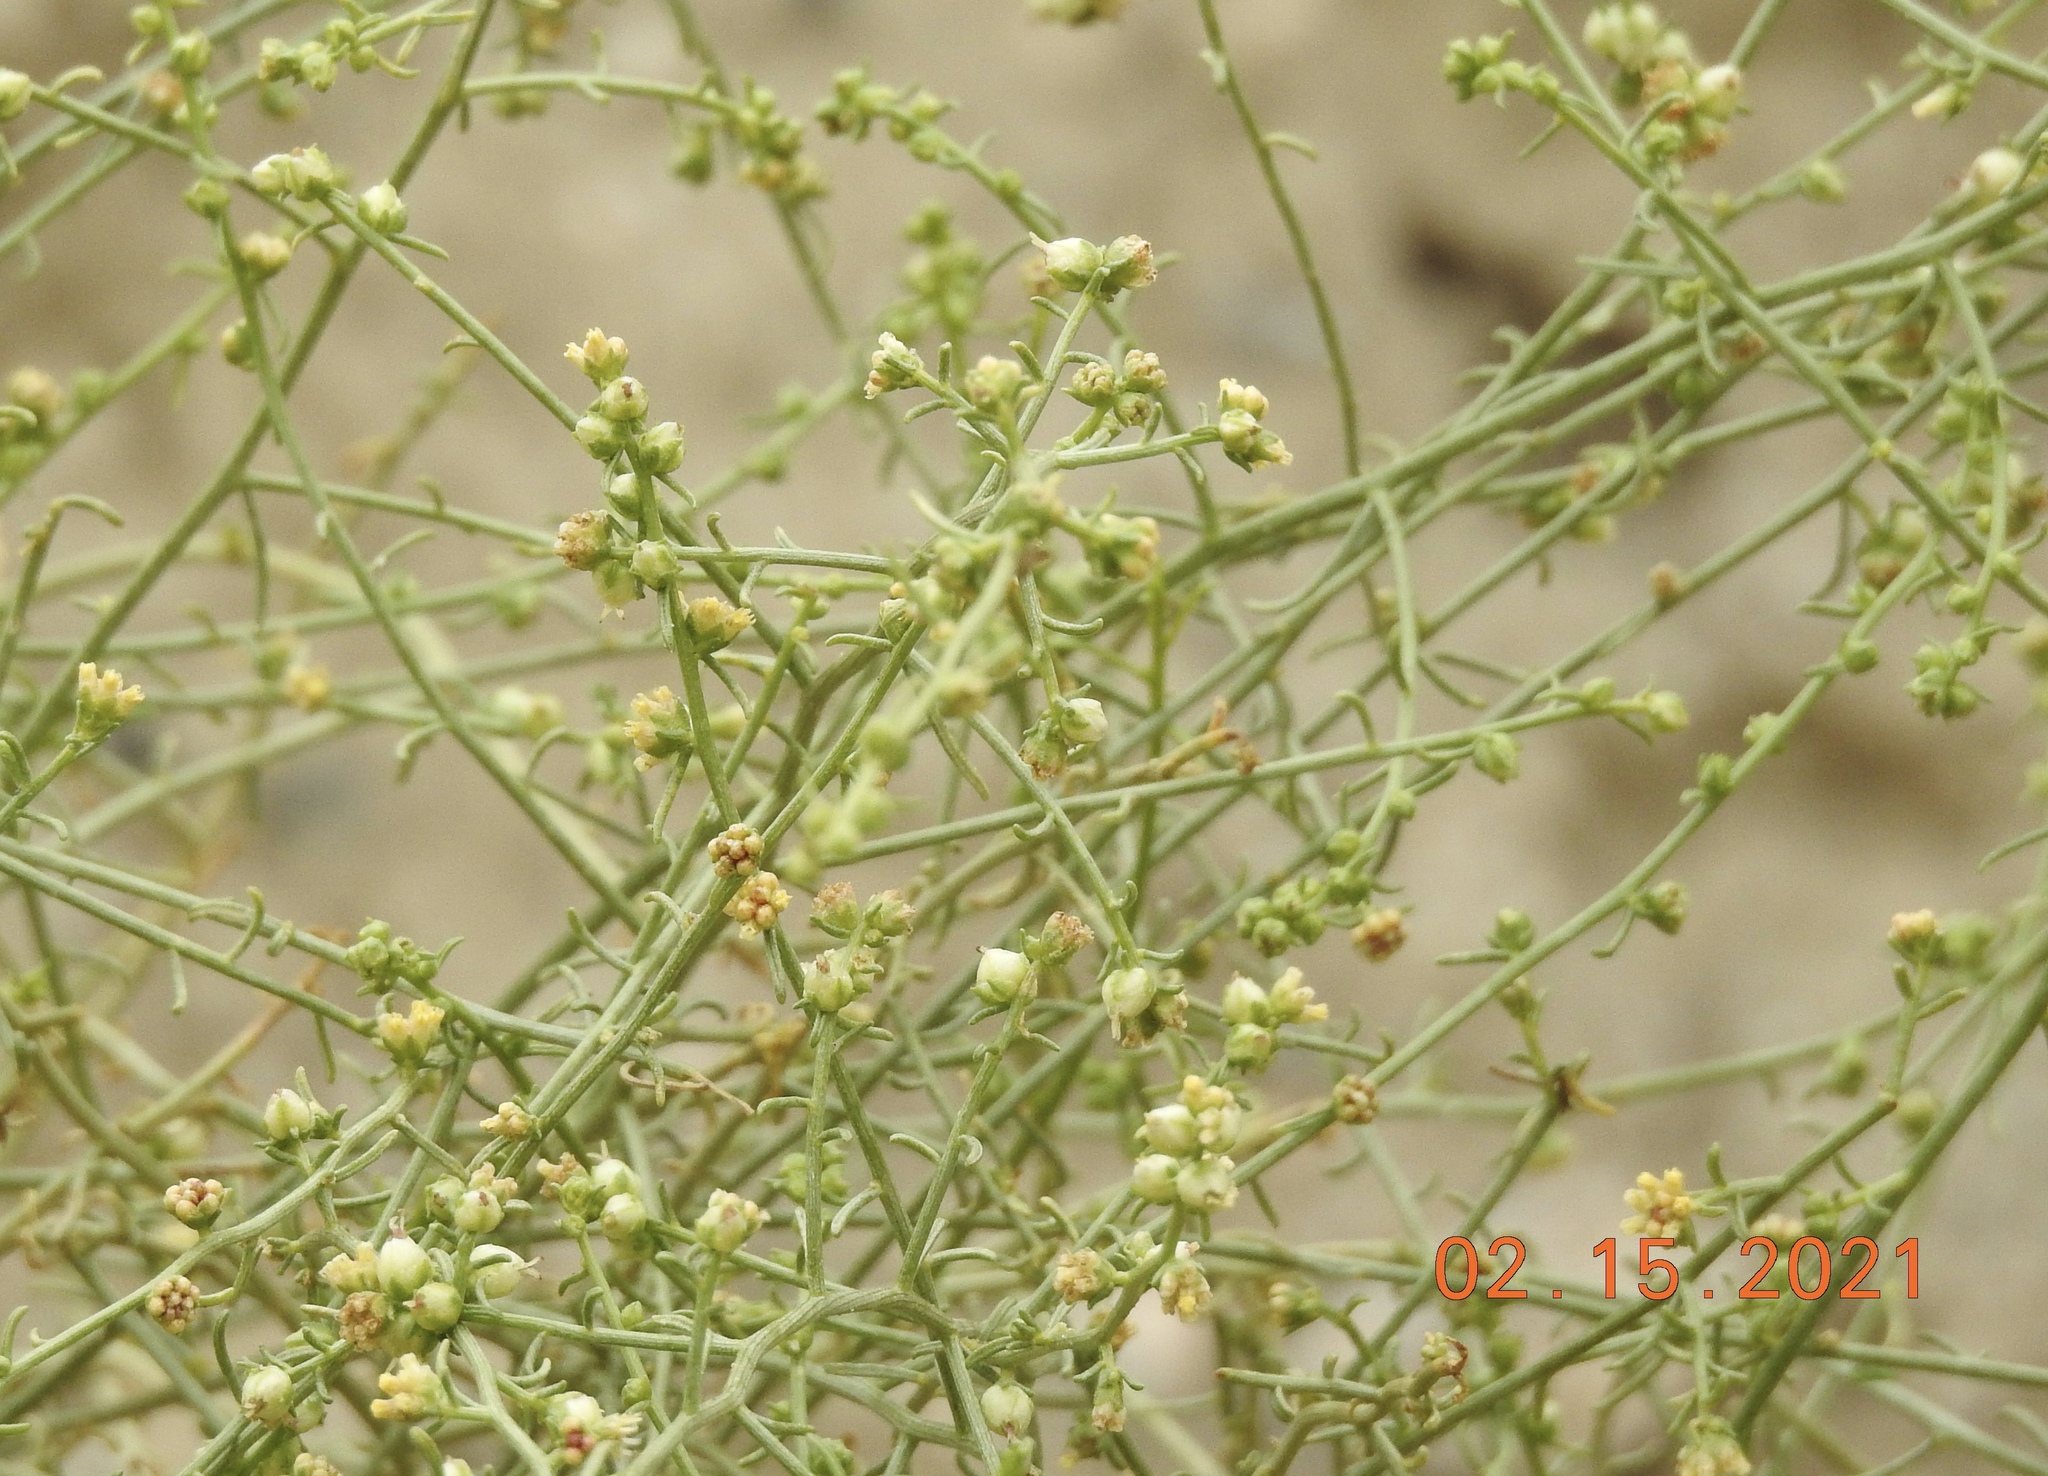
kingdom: Plantae
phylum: Tracheophyta
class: Magnoliopsida
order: Asterales
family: Asteraceae
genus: Ambrosia
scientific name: Ambrosia salsola
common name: Burrobrush
